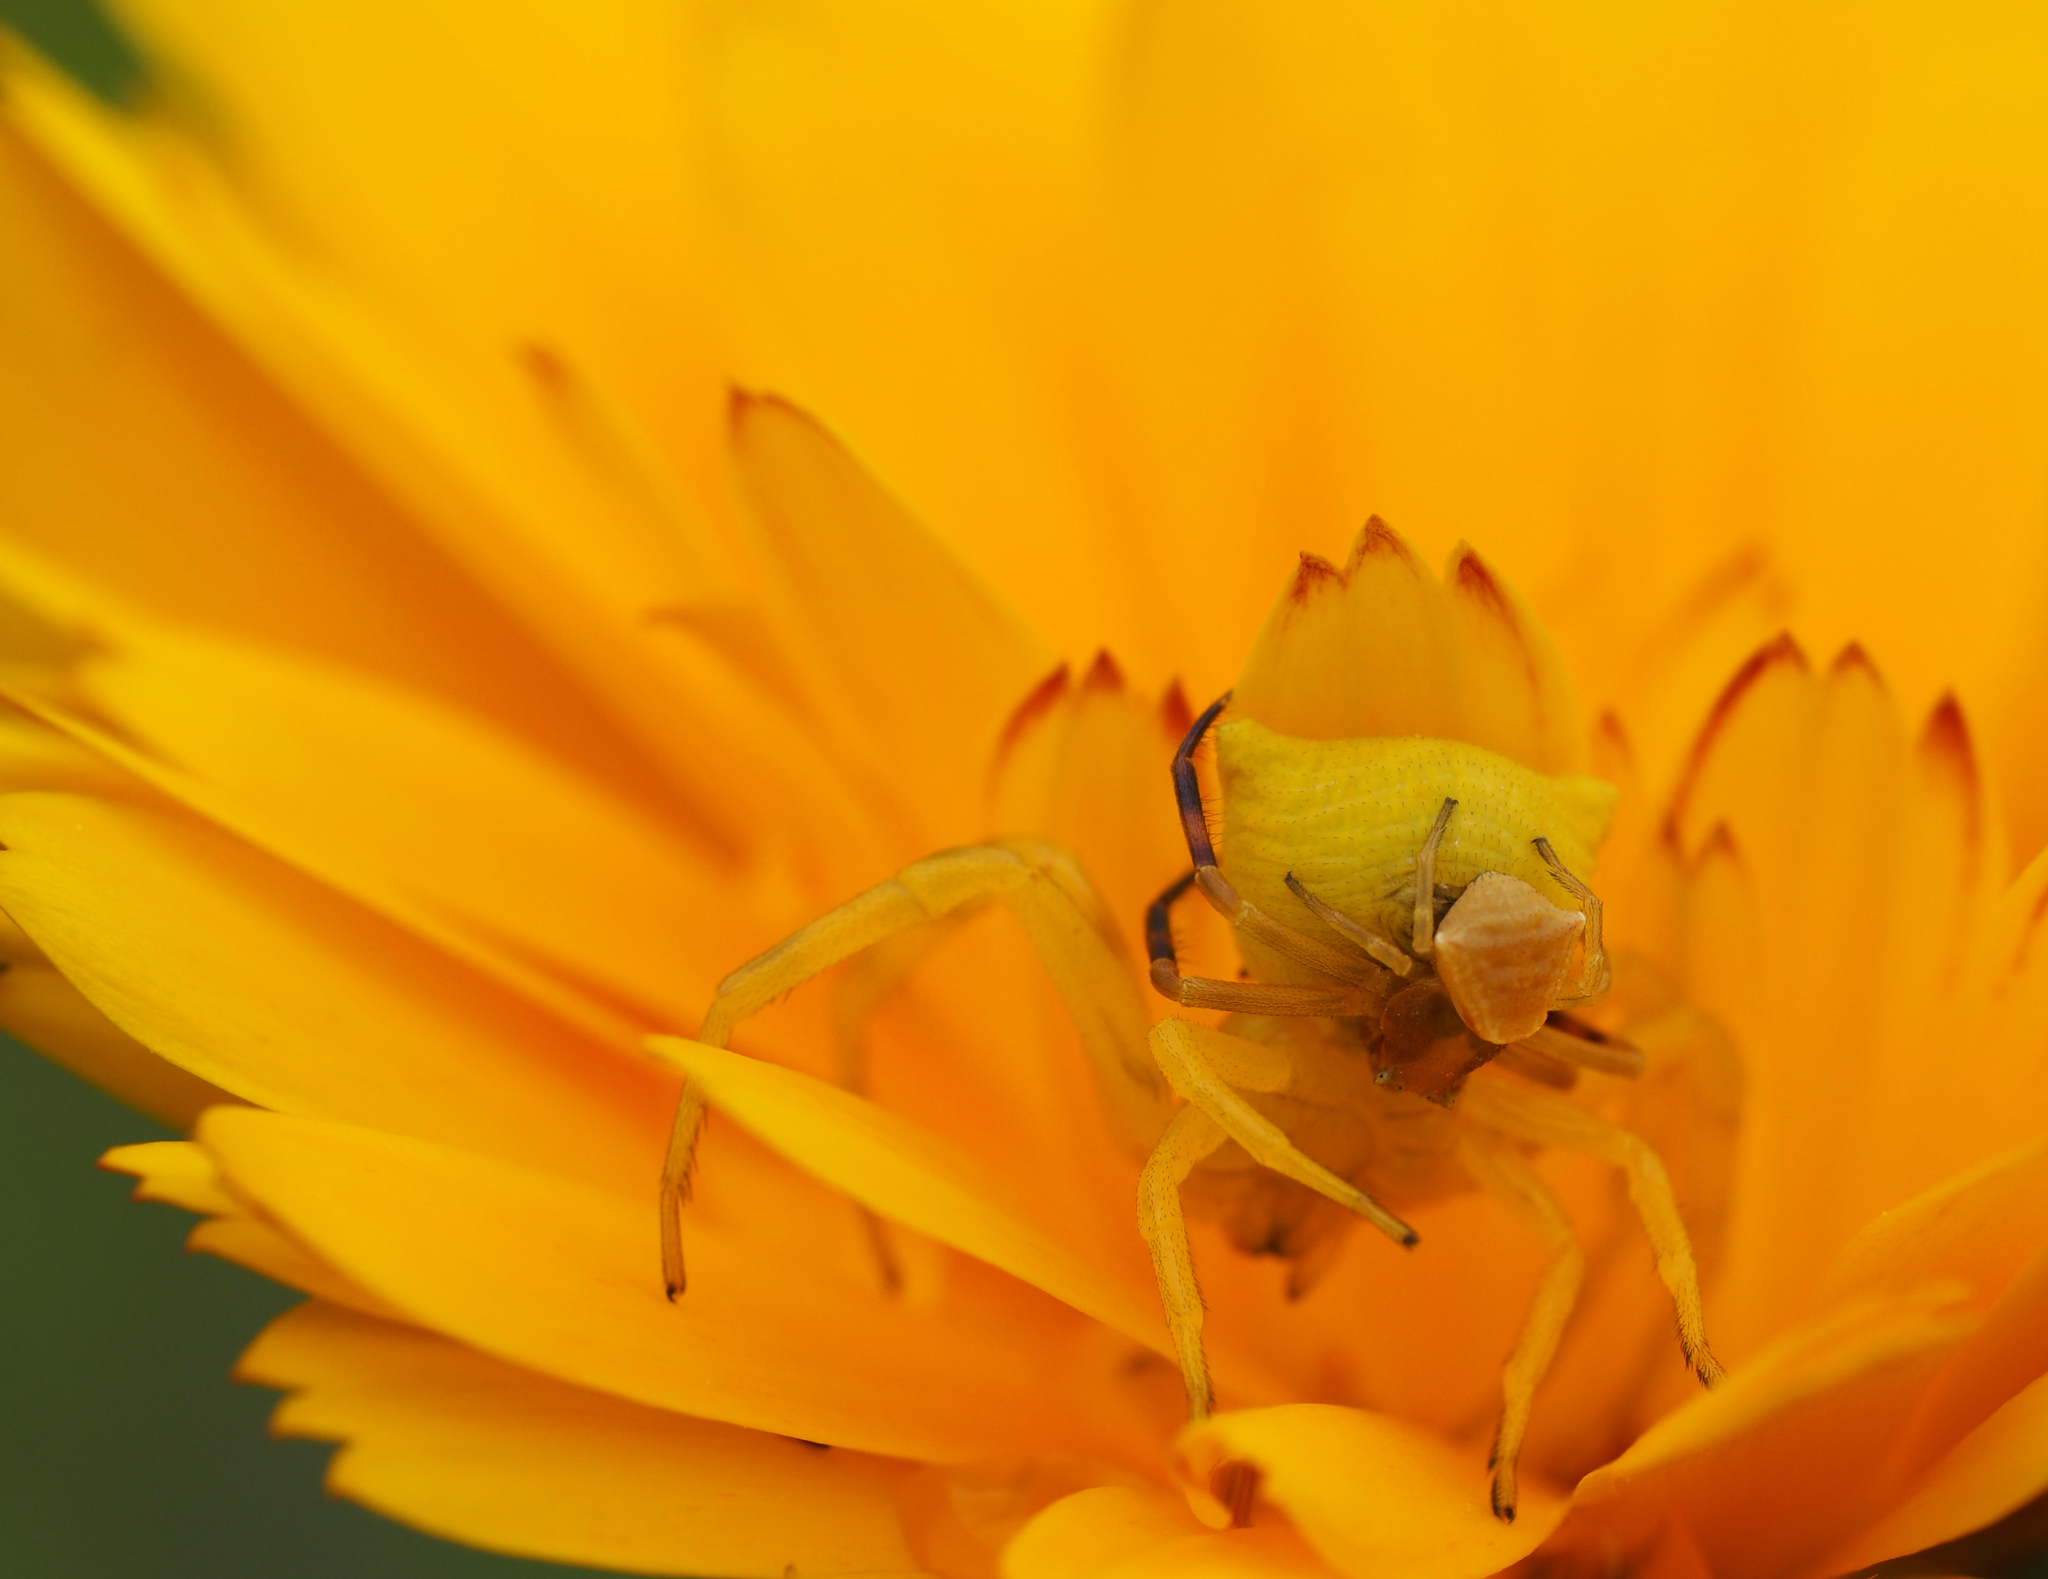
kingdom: Animalia
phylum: Arthropoda
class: Arachnida
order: Araneae
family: Thomisidae
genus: Thomisus
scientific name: Thomisus onustus
